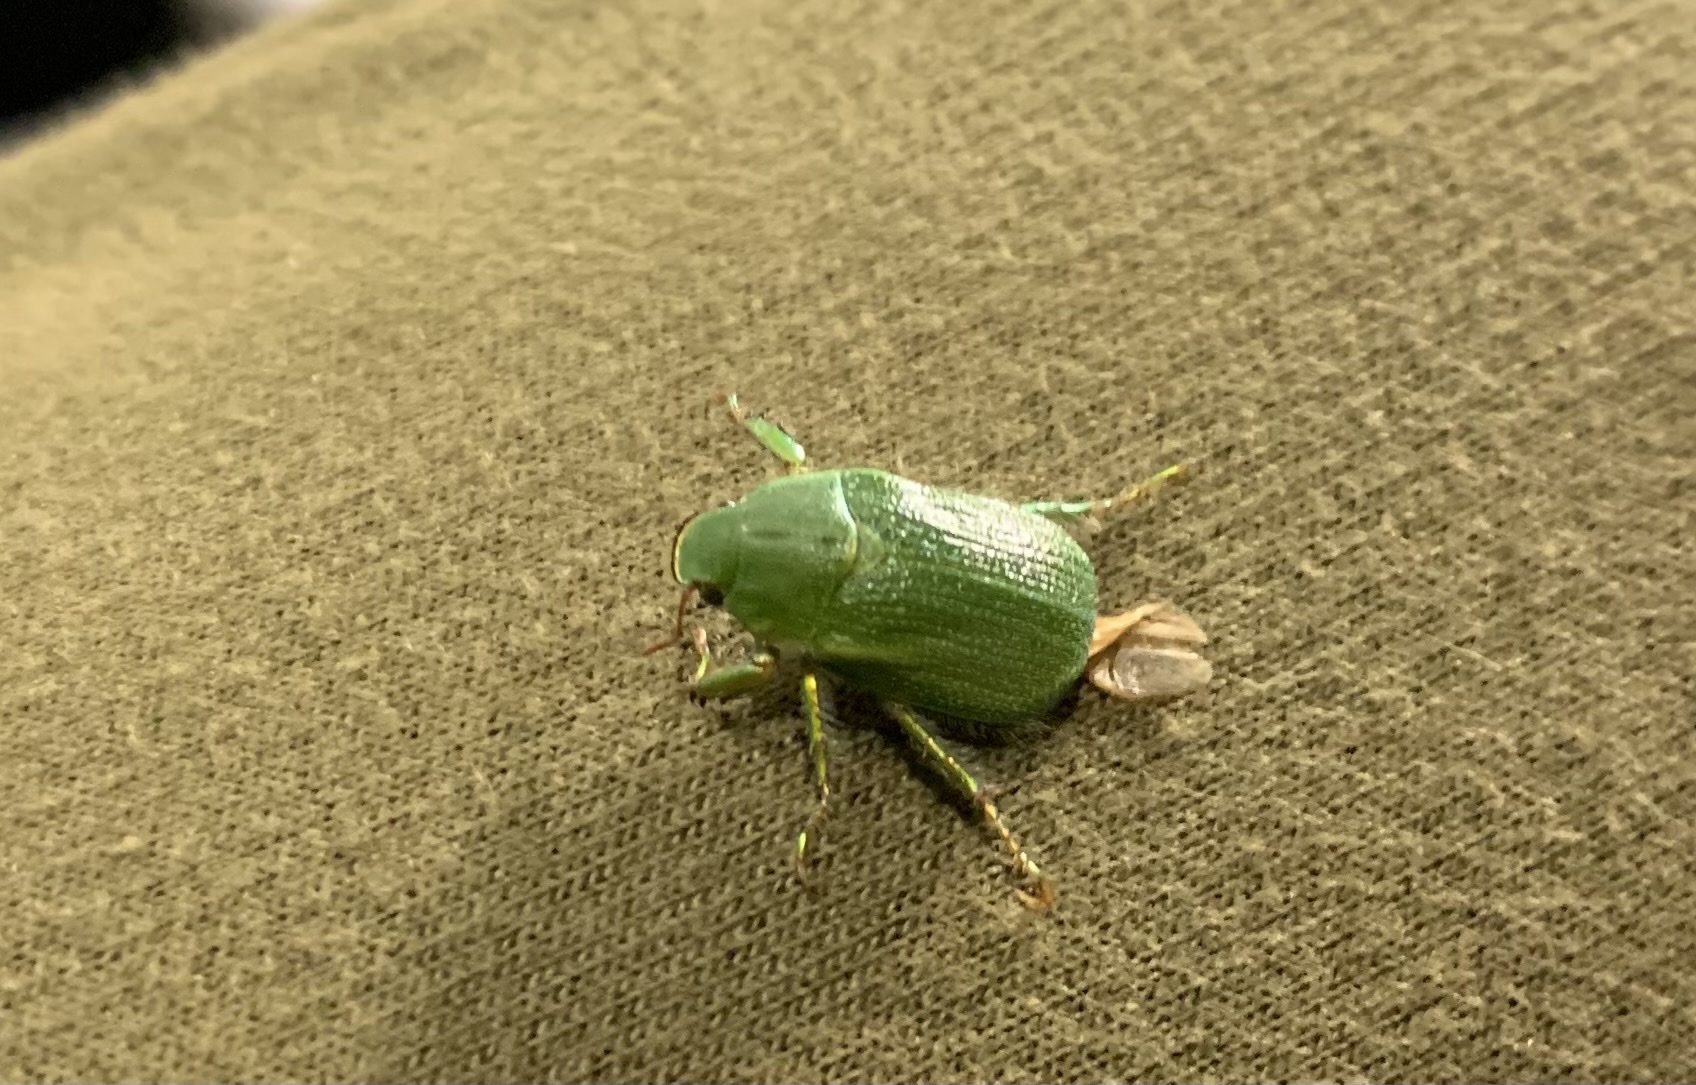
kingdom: Animalia
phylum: Arthropoda
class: Insecta
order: Coleoptera
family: Scarabaeidae
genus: Hylamorpha
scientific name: Hylamorpha elegans
